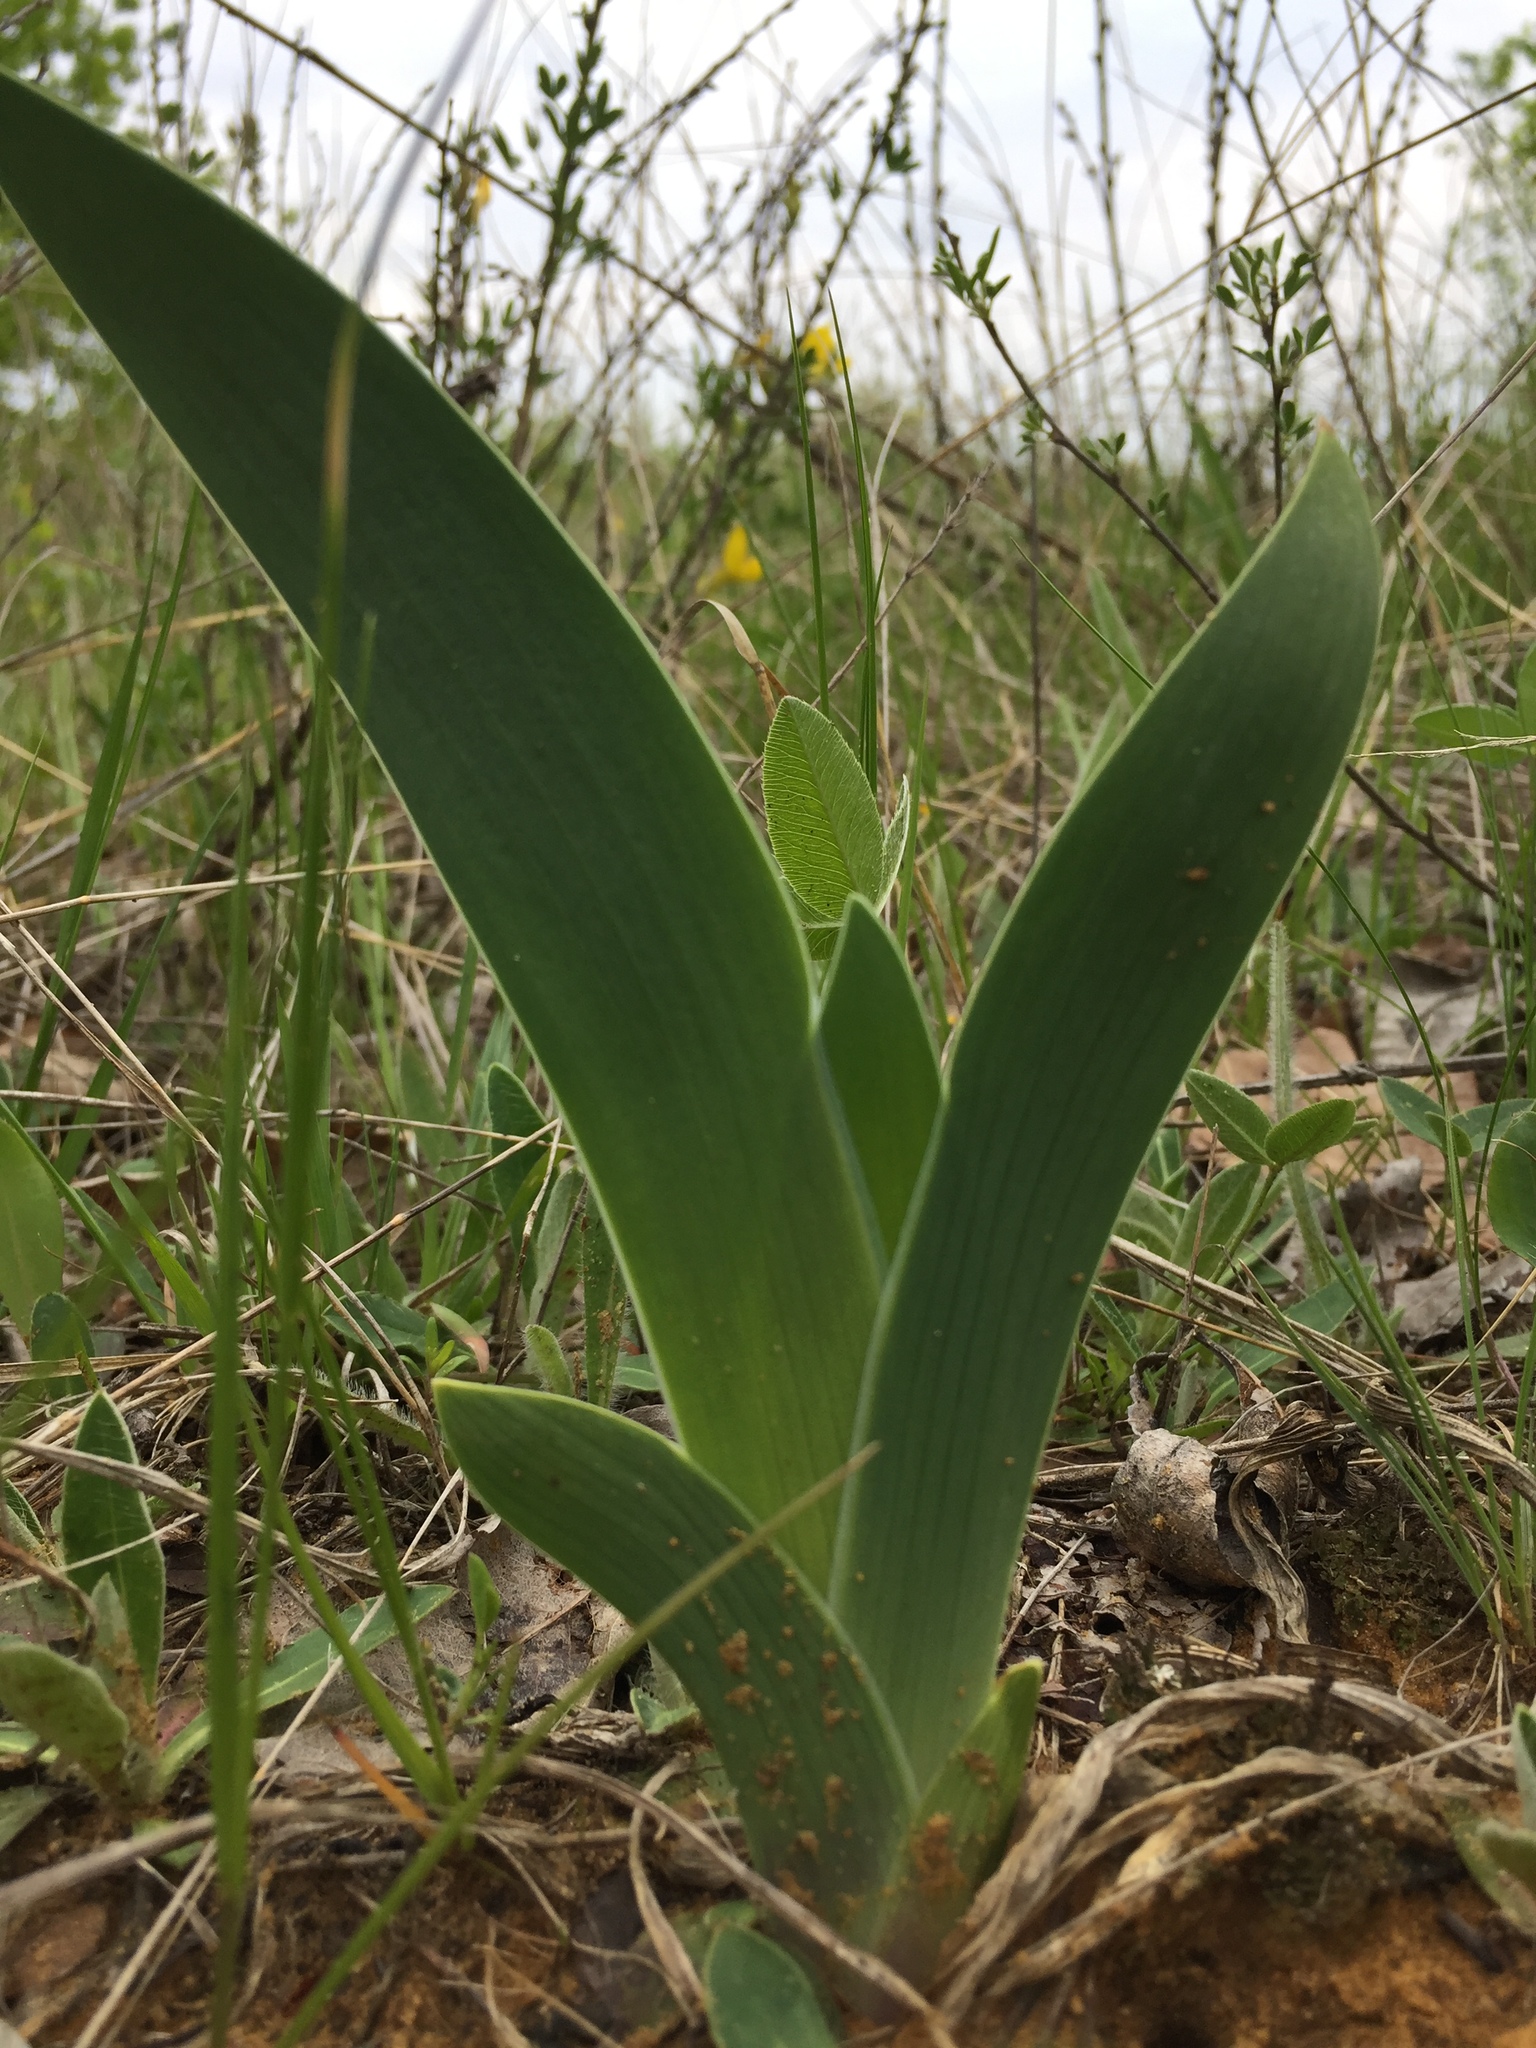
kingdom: Plantae
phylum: Tracheophyta
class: Liliopsida
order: Asparagales
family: Iridaceae
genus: Iris
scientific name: Iris aphylla
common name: Stool iris
